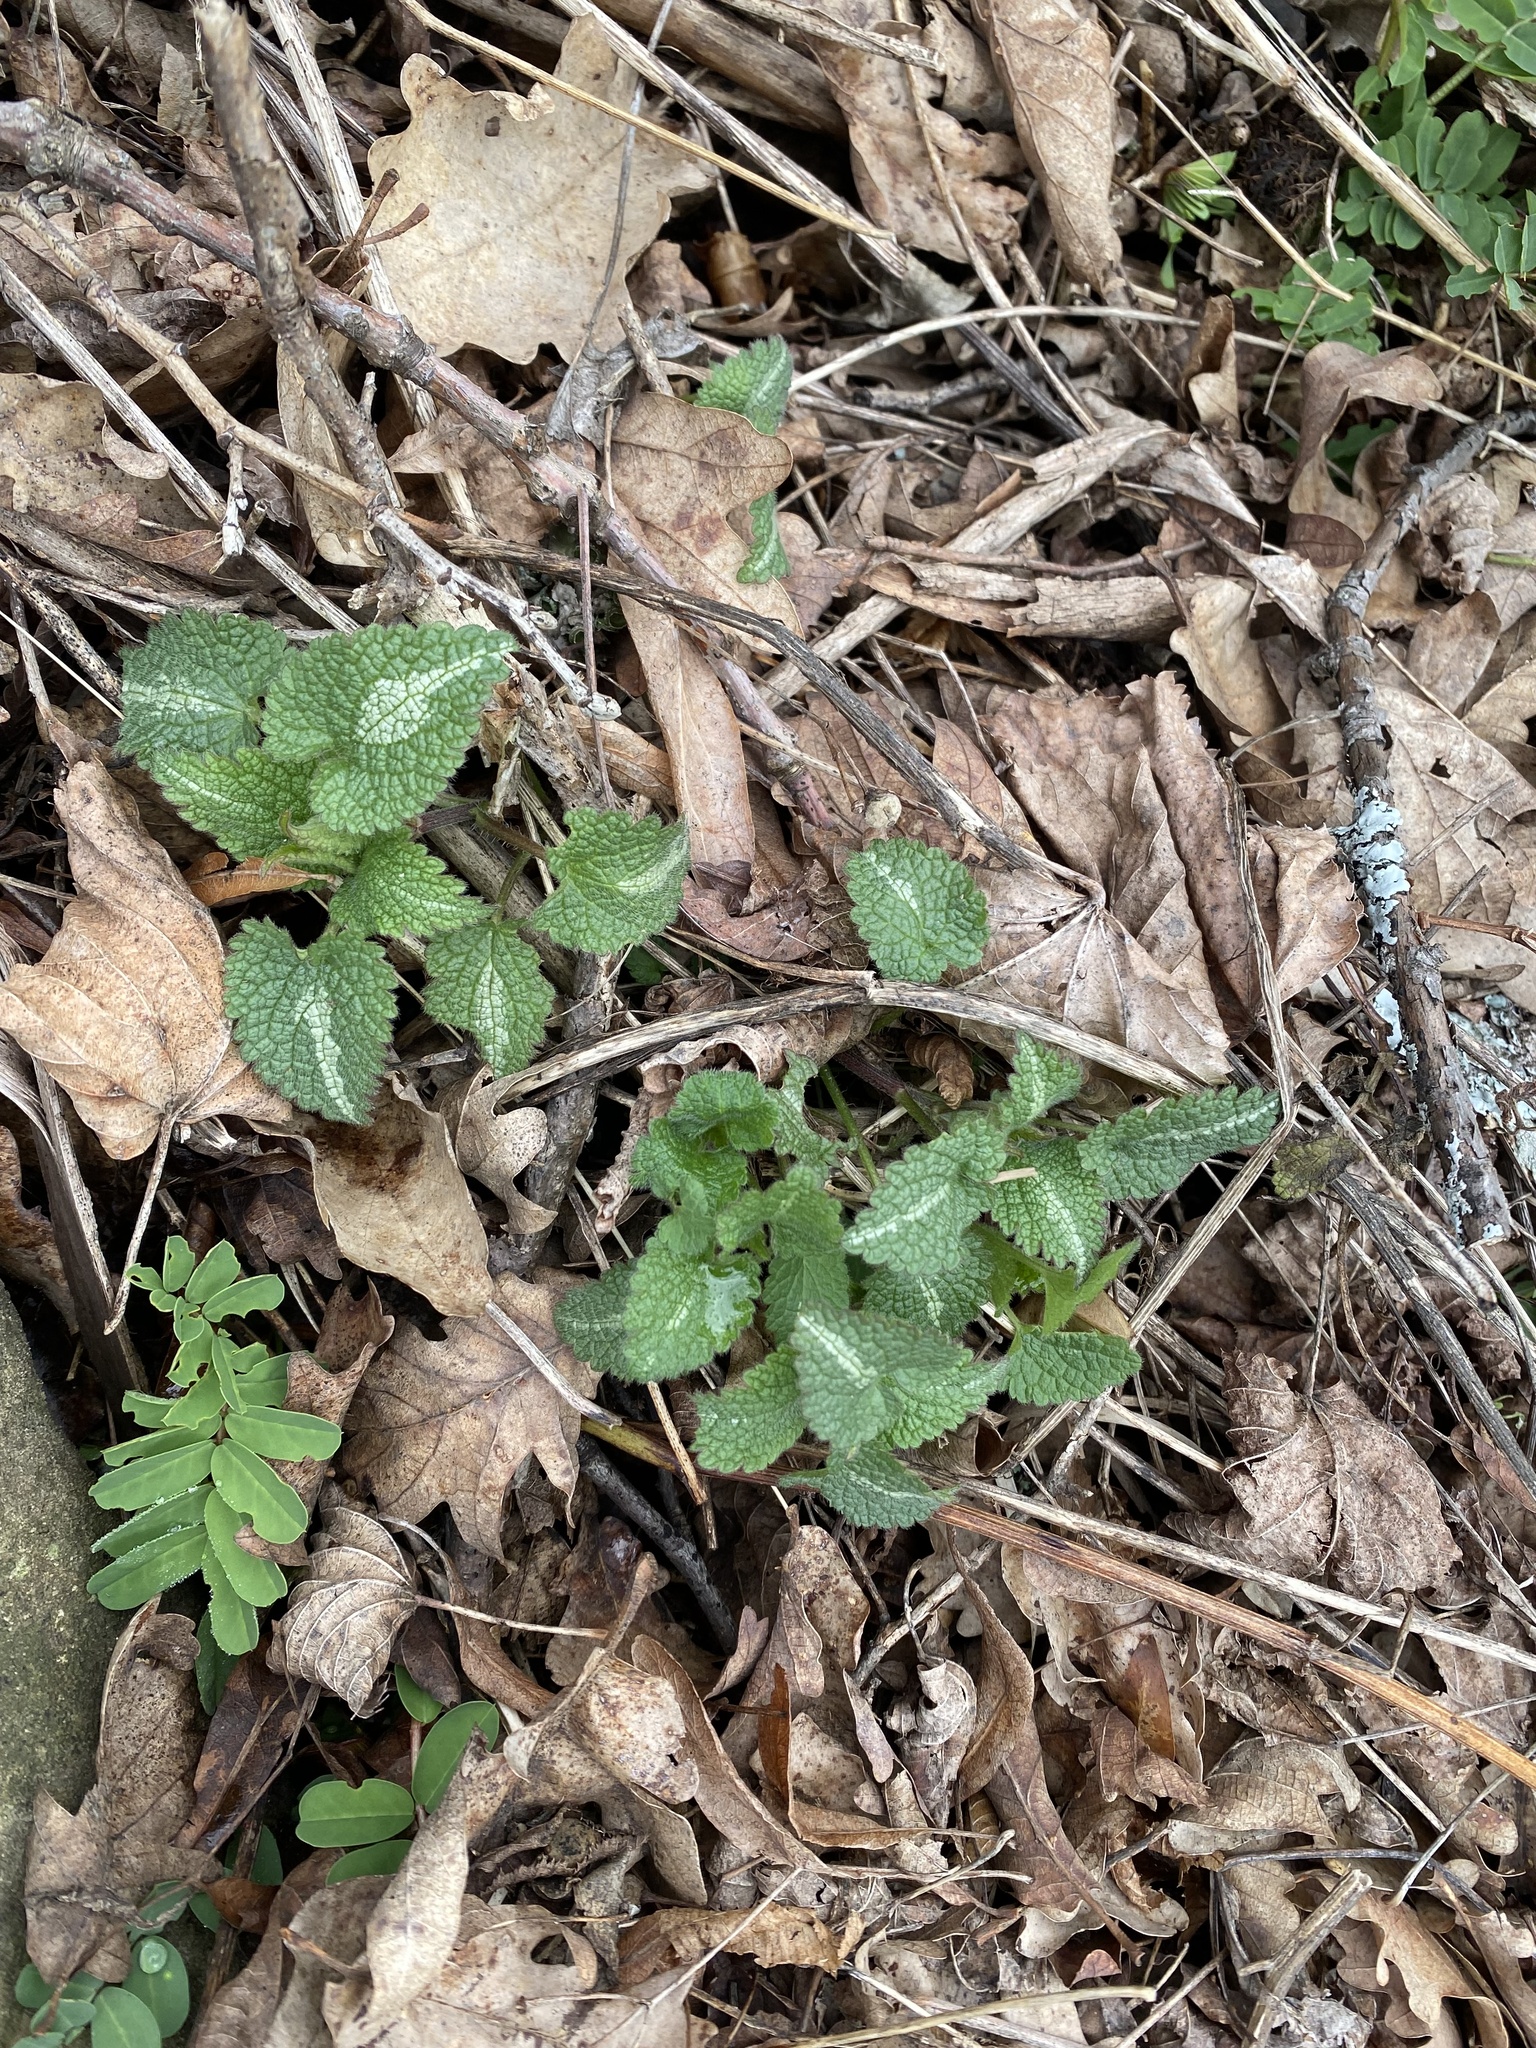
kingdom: Plantae
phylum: Tracheophyta
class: Magnoliopsida
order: Lamiales
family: Lamiaceae
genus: Lamium
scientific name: Lamium maculatum
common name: Spotted dead-nettle
